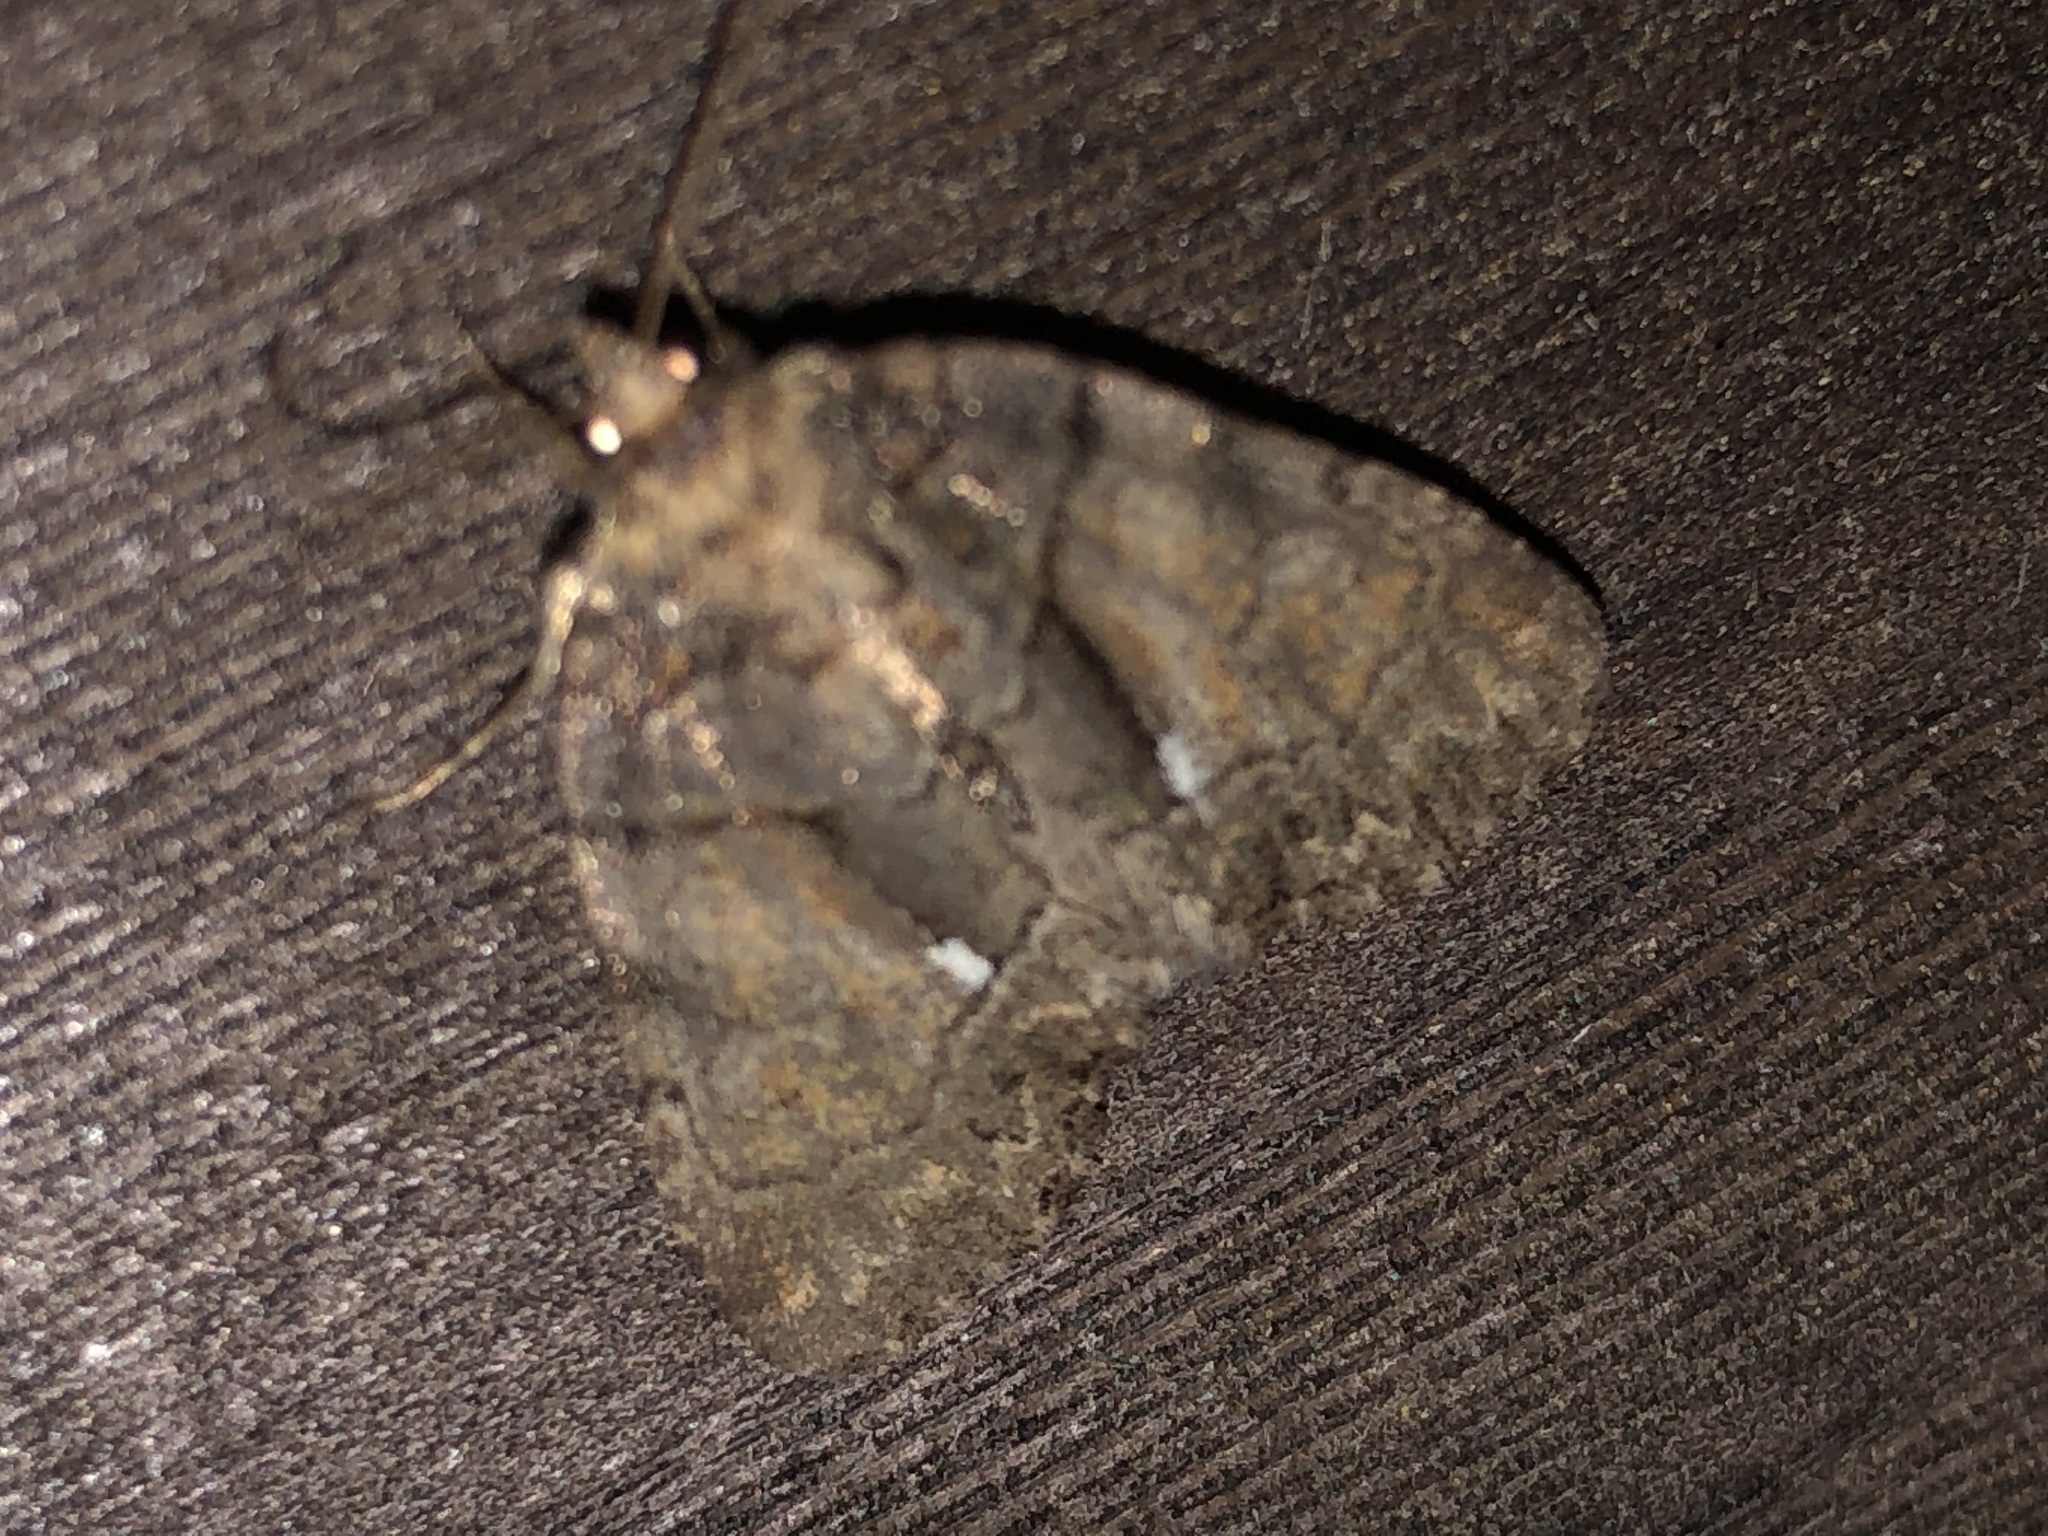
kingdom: Animalia
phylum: Arthropoda
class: Insecta
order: Lepidoptera
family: Noctuidae
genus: Chytonix
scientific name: Chytonix palliatricula
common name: Cloaked marvel
